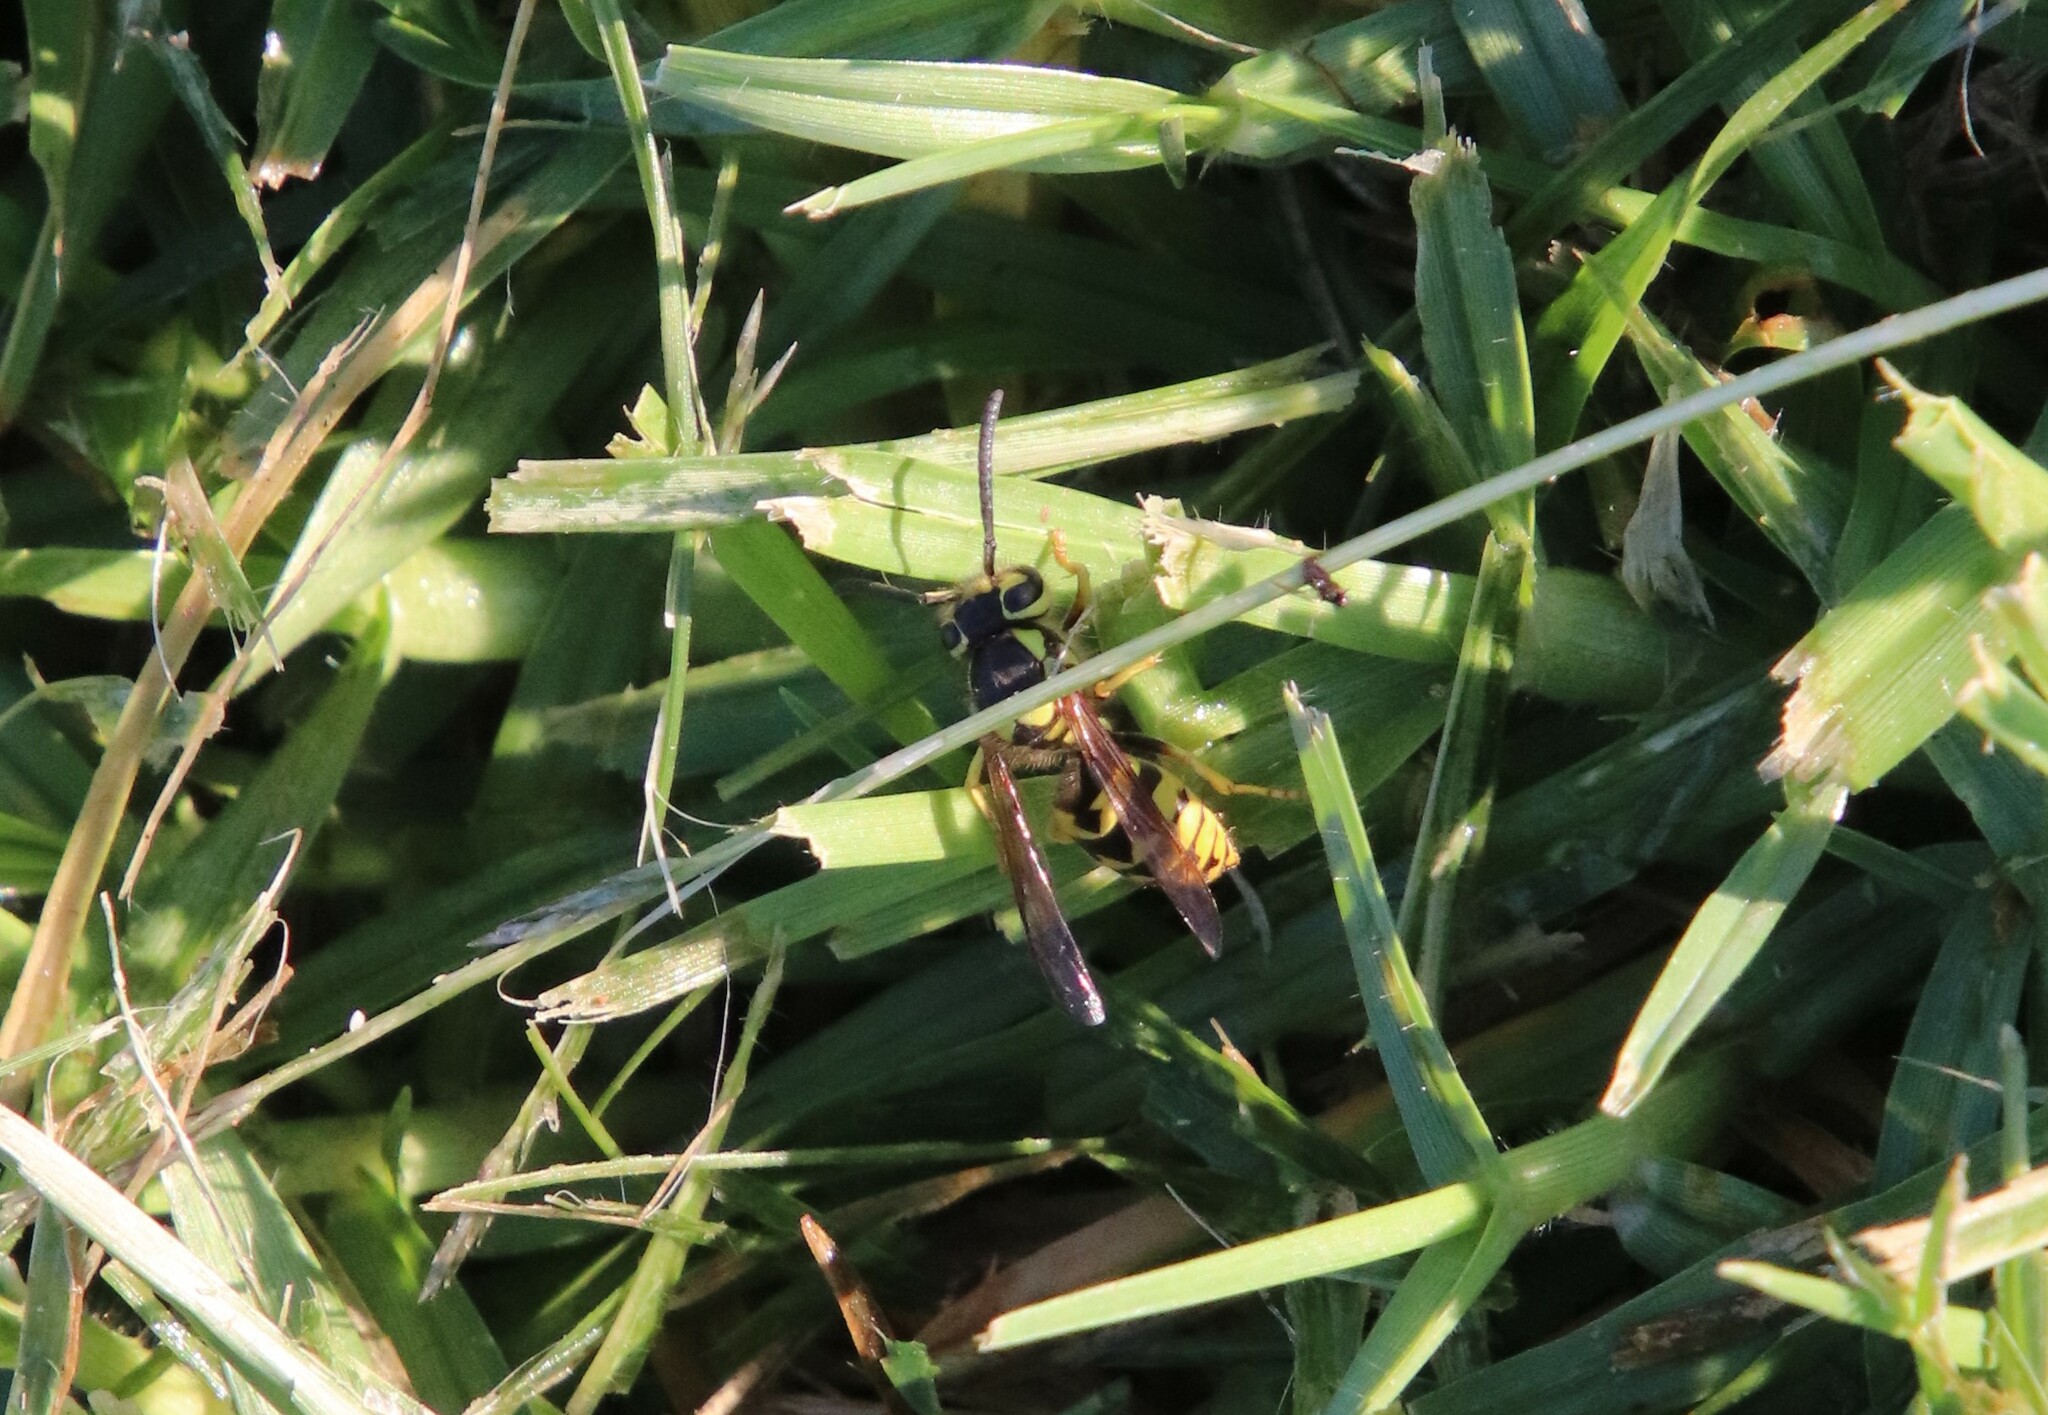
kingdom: Animalia
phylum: Arthropoda
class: Insecta
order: Hymenoptera
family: Vespidae
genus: Vespula
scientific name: Vespula pensylvanica
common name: Western yellowjacket
